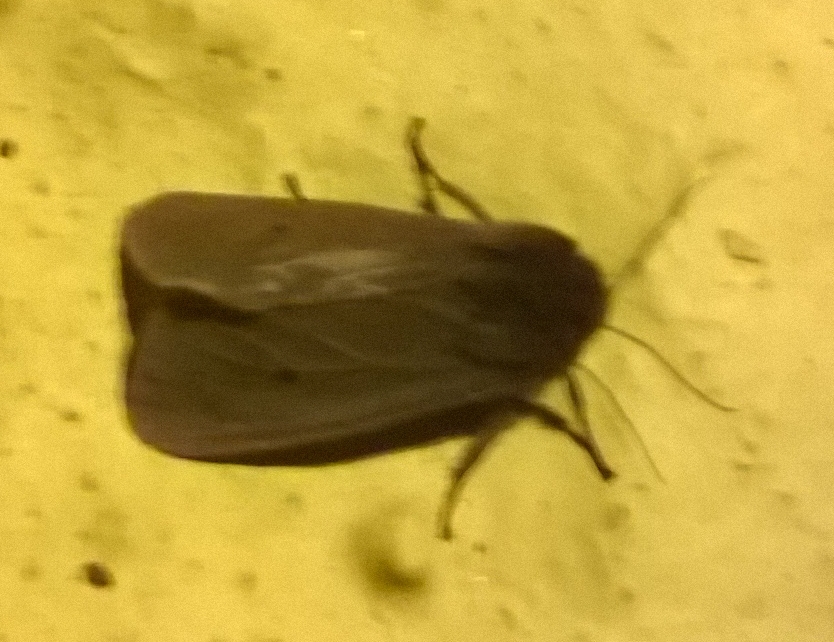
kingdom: Animalia
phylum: Arthropoda
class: Insecta
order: Lepidoptera
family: Erebidae
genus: Phragmatobia
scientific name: Phragmatobia fuliginosa
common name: Ruby tiger
